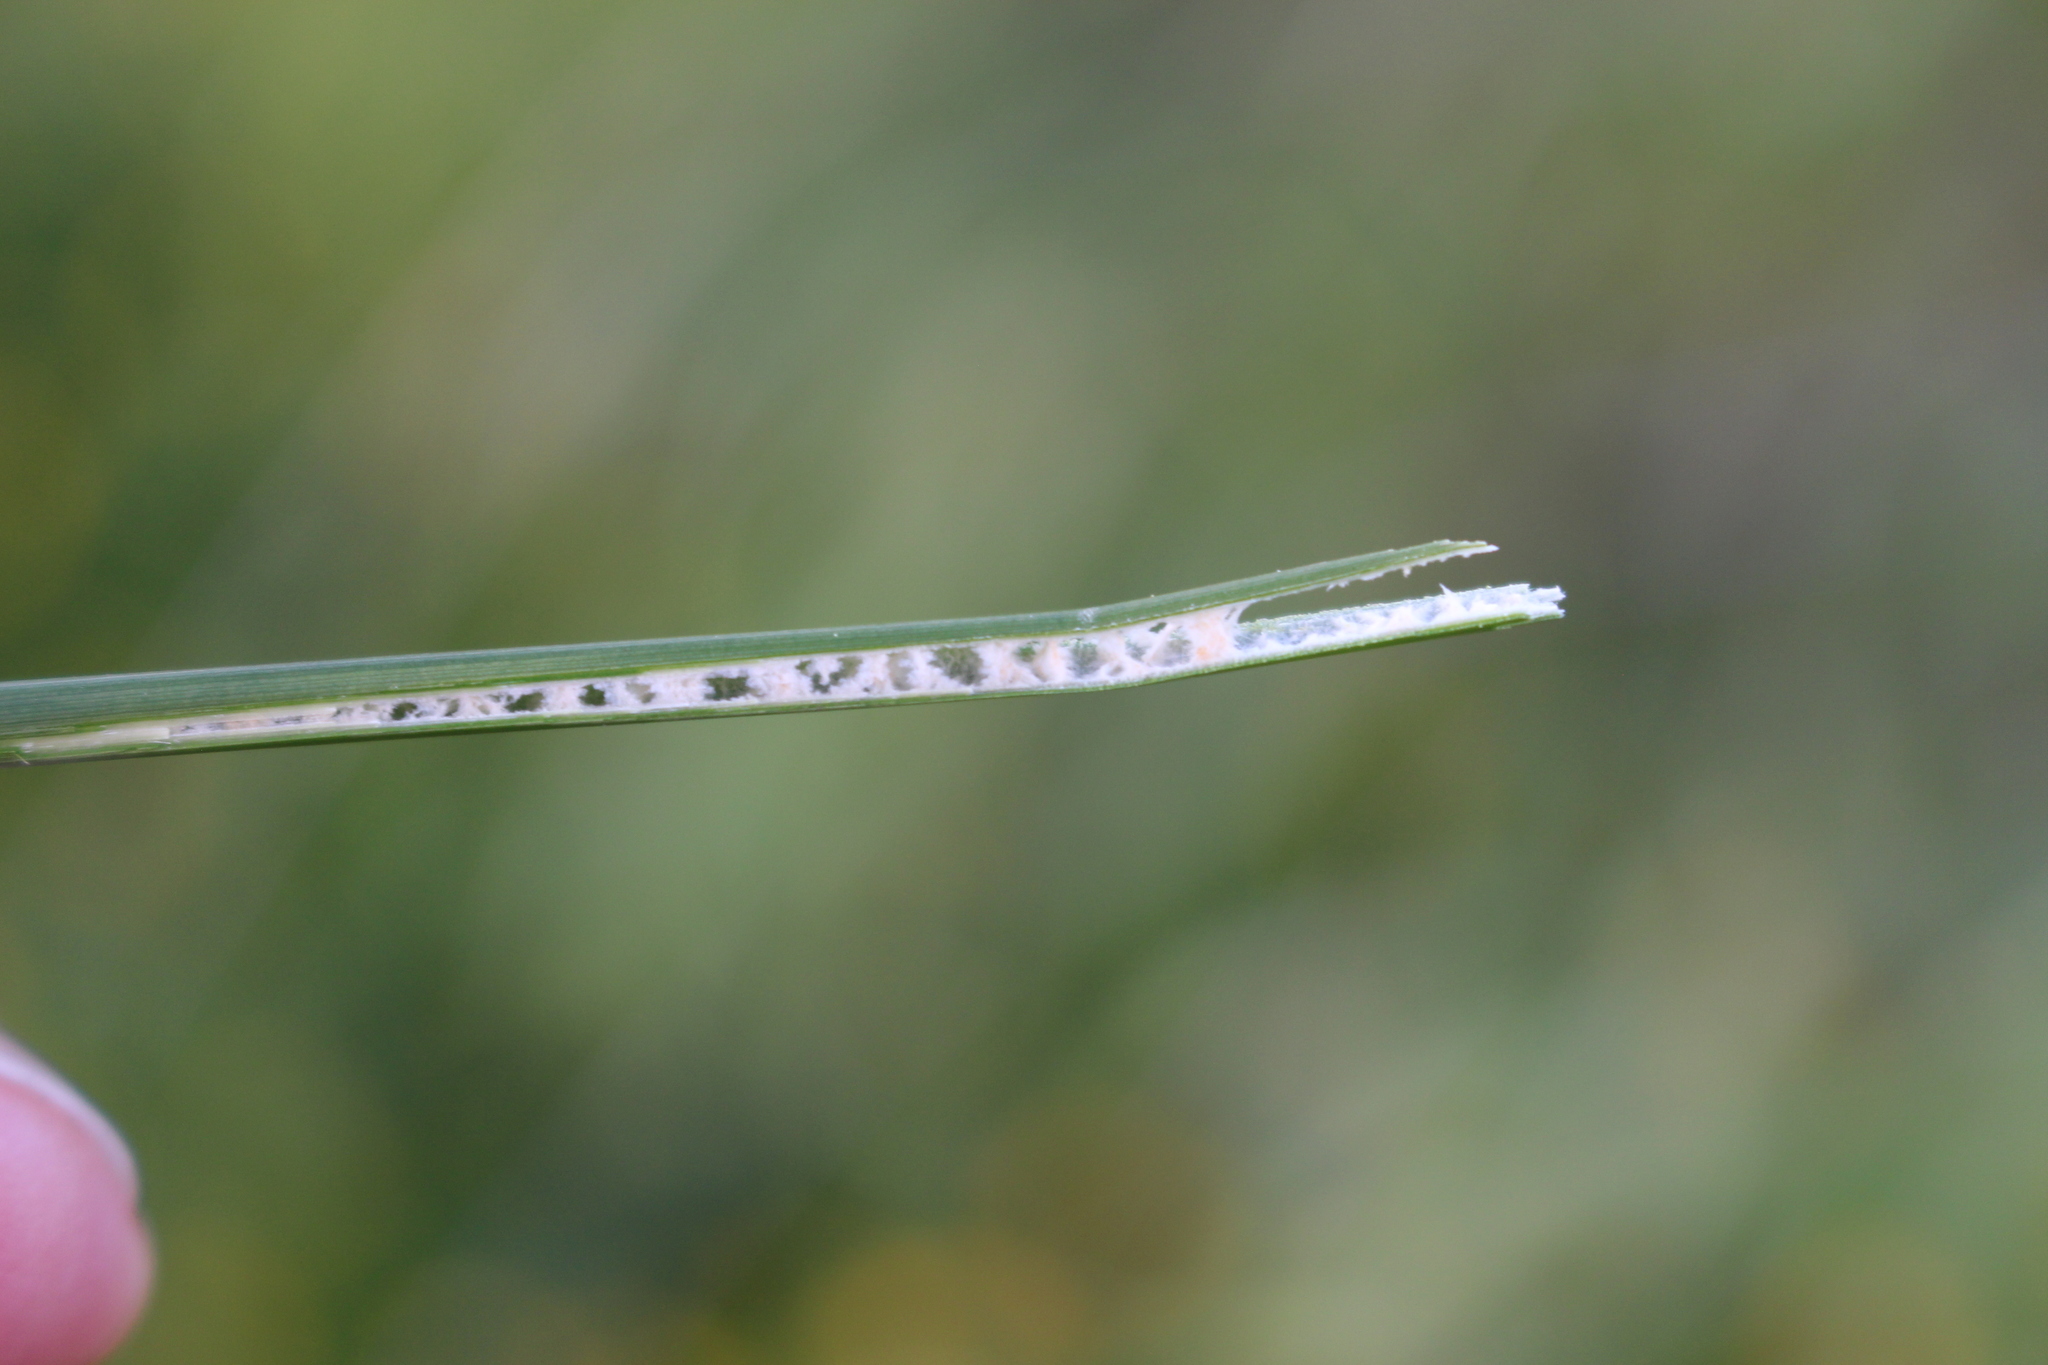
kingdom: Plantae
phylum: Tracheophyta
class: Liliopsida
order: Poales
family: Juncaceae
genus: Juncus
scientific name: Juncus australis
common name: Austral rush
